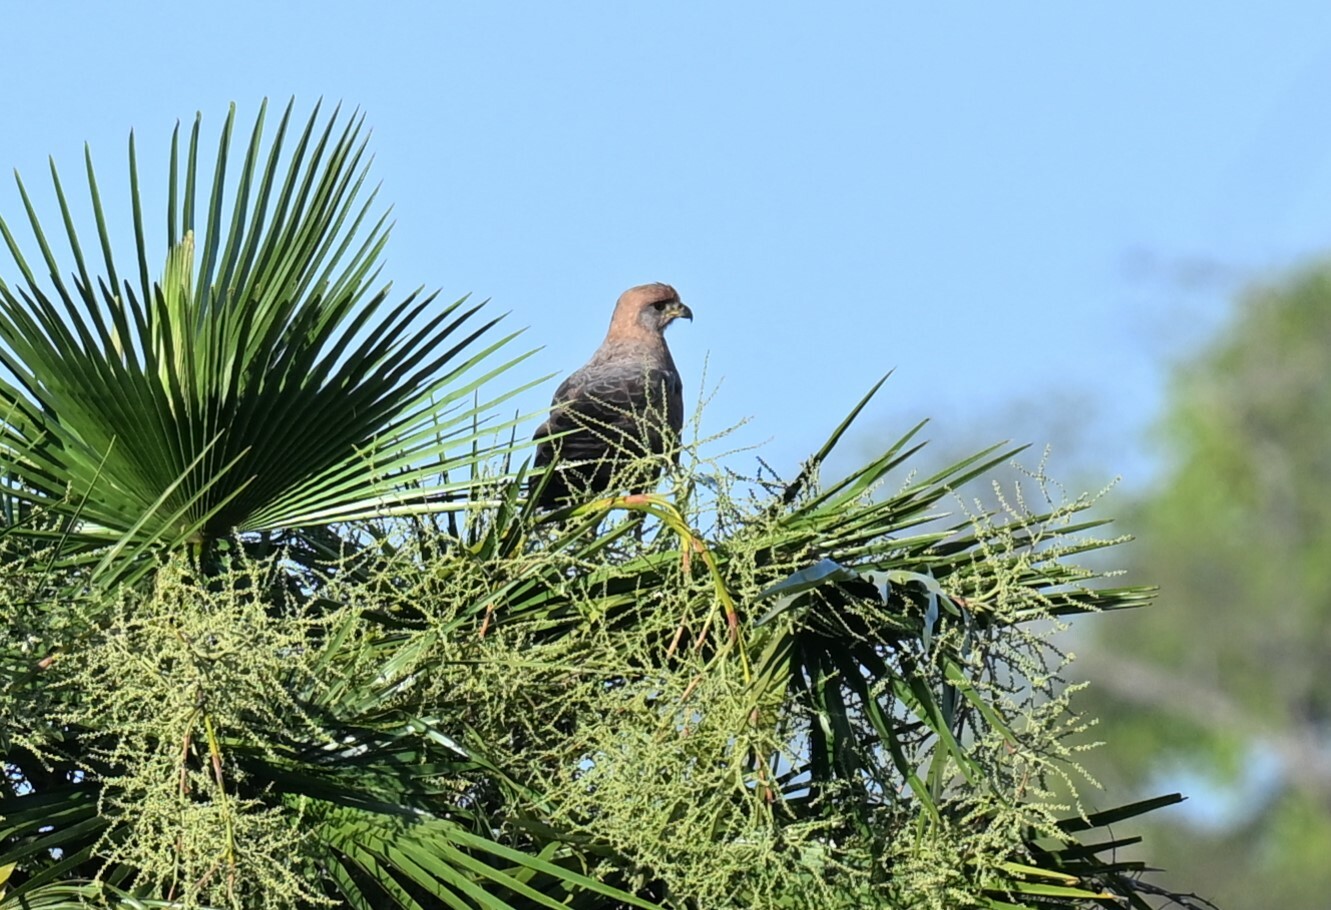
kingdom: Animalia
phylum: Chordata
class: Aves
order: Accipitriformes
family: Accipitridae
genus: Buteogallus
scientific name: Buteogallus meridionalis
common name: Savanna hawk
